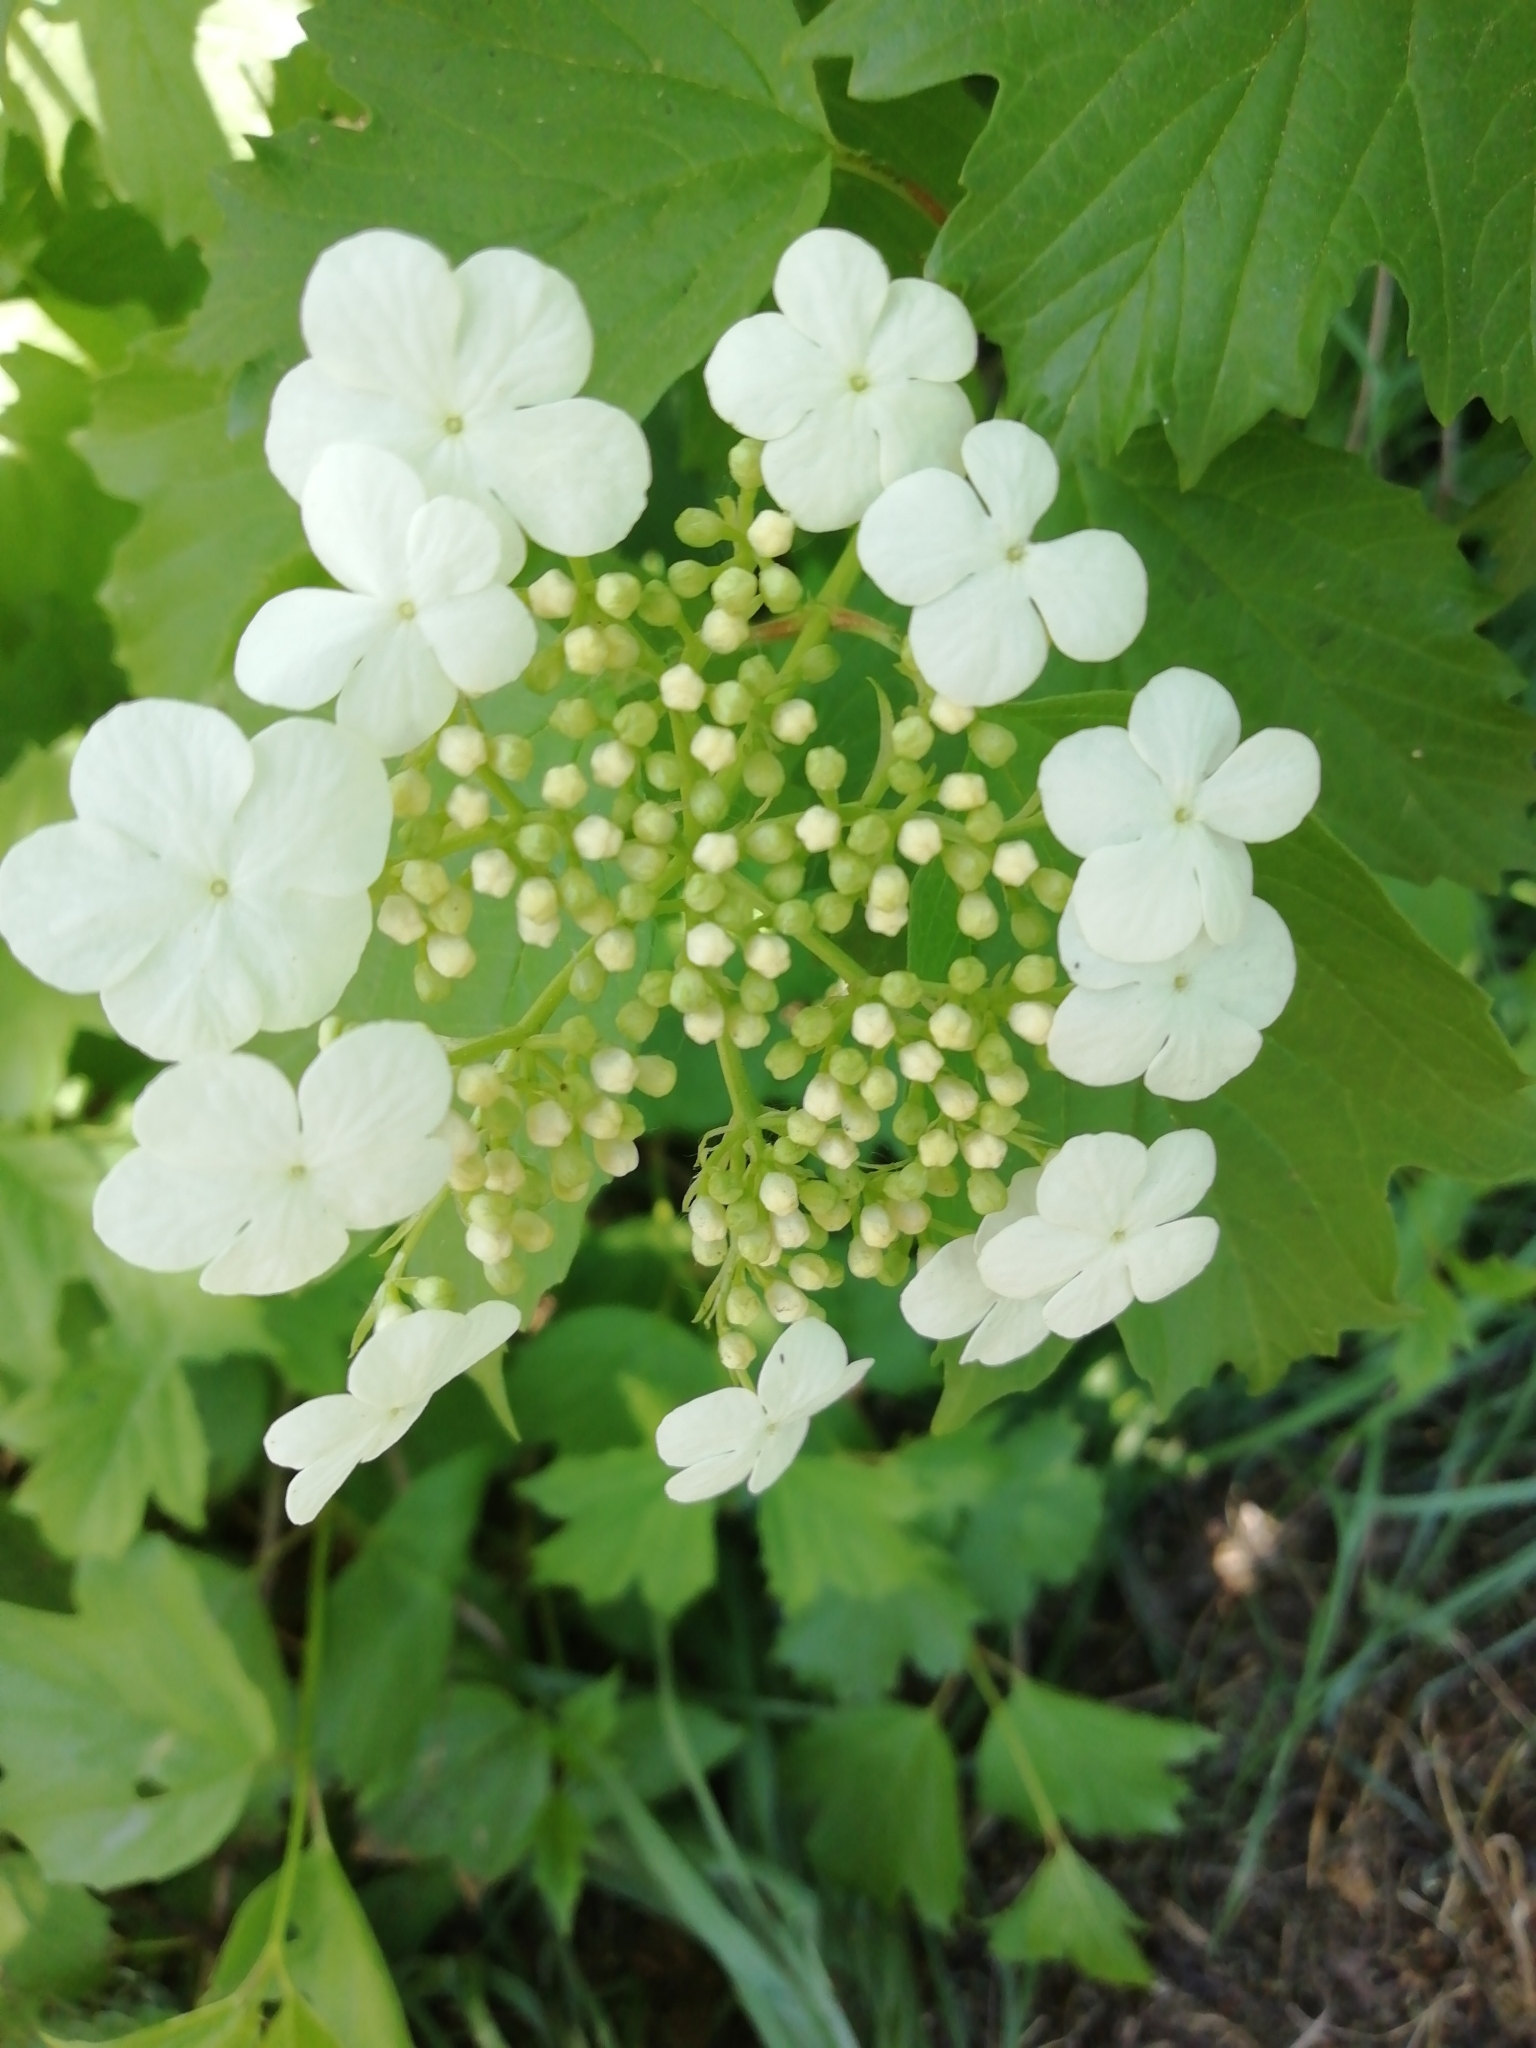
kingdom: Plantae
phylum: Tracheophyta
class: Magnoliopsida
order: Dipsacales
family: Viburnaceae
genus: Viburnum
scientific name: Viburnum opulus
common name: Guelder-rose
